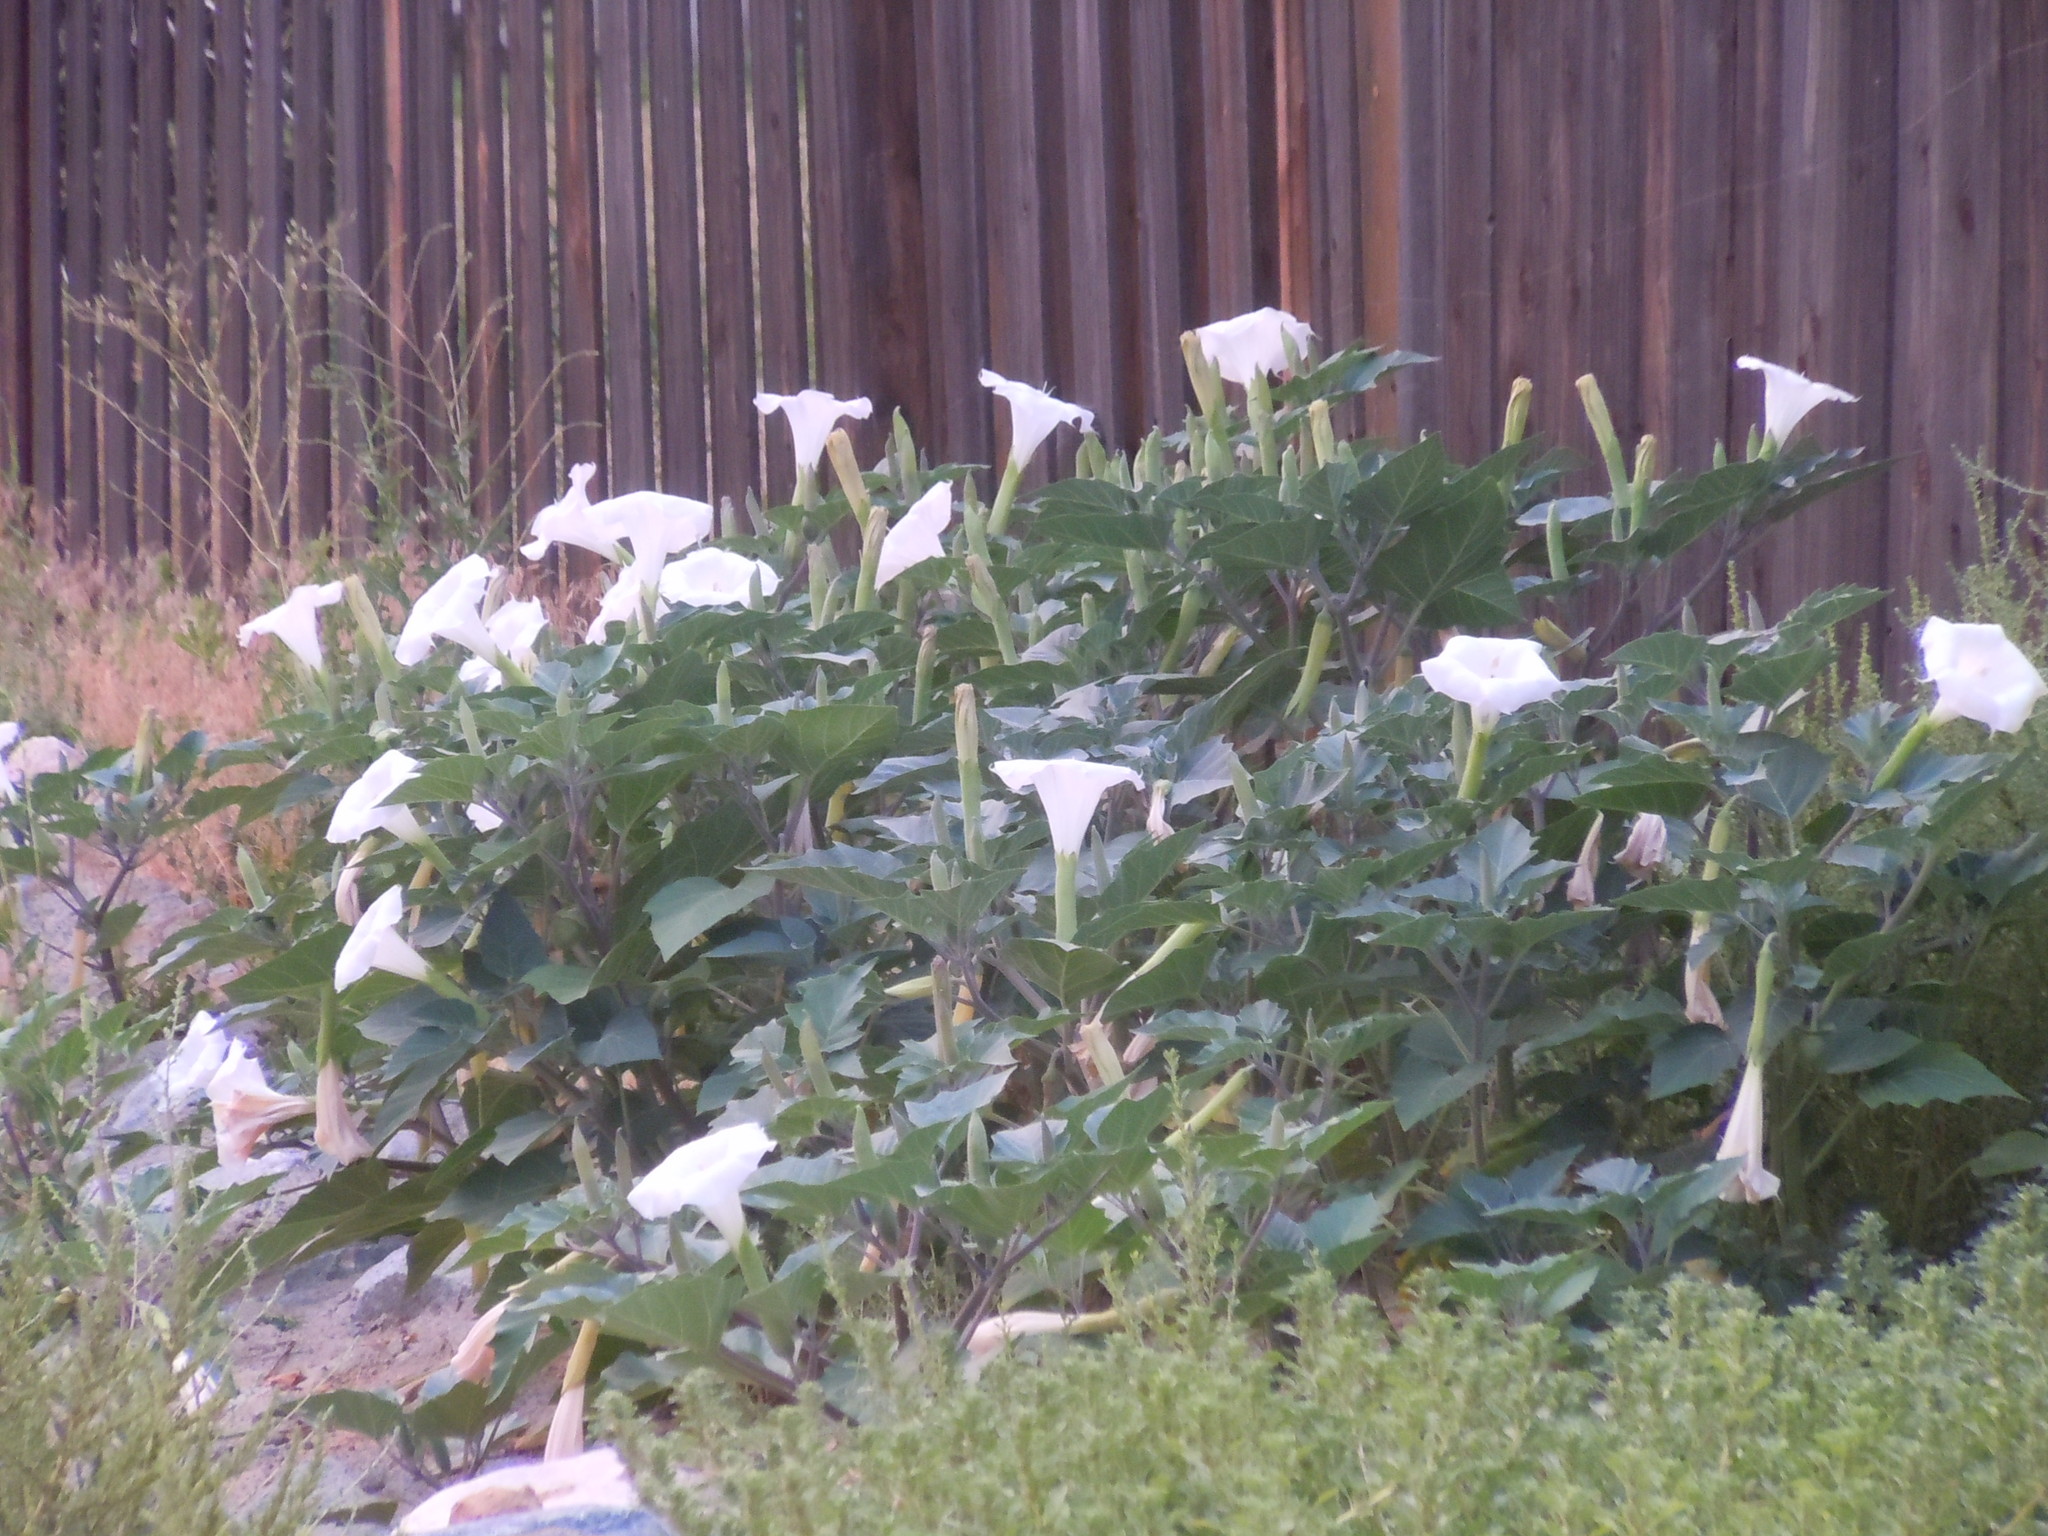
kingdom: Plantae
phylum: Tracheophyta
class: Magnoliopsida
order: Solanales
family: Solanaceae
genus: Datura
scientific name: Datura wrightii
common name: Sacred thorn-apple
